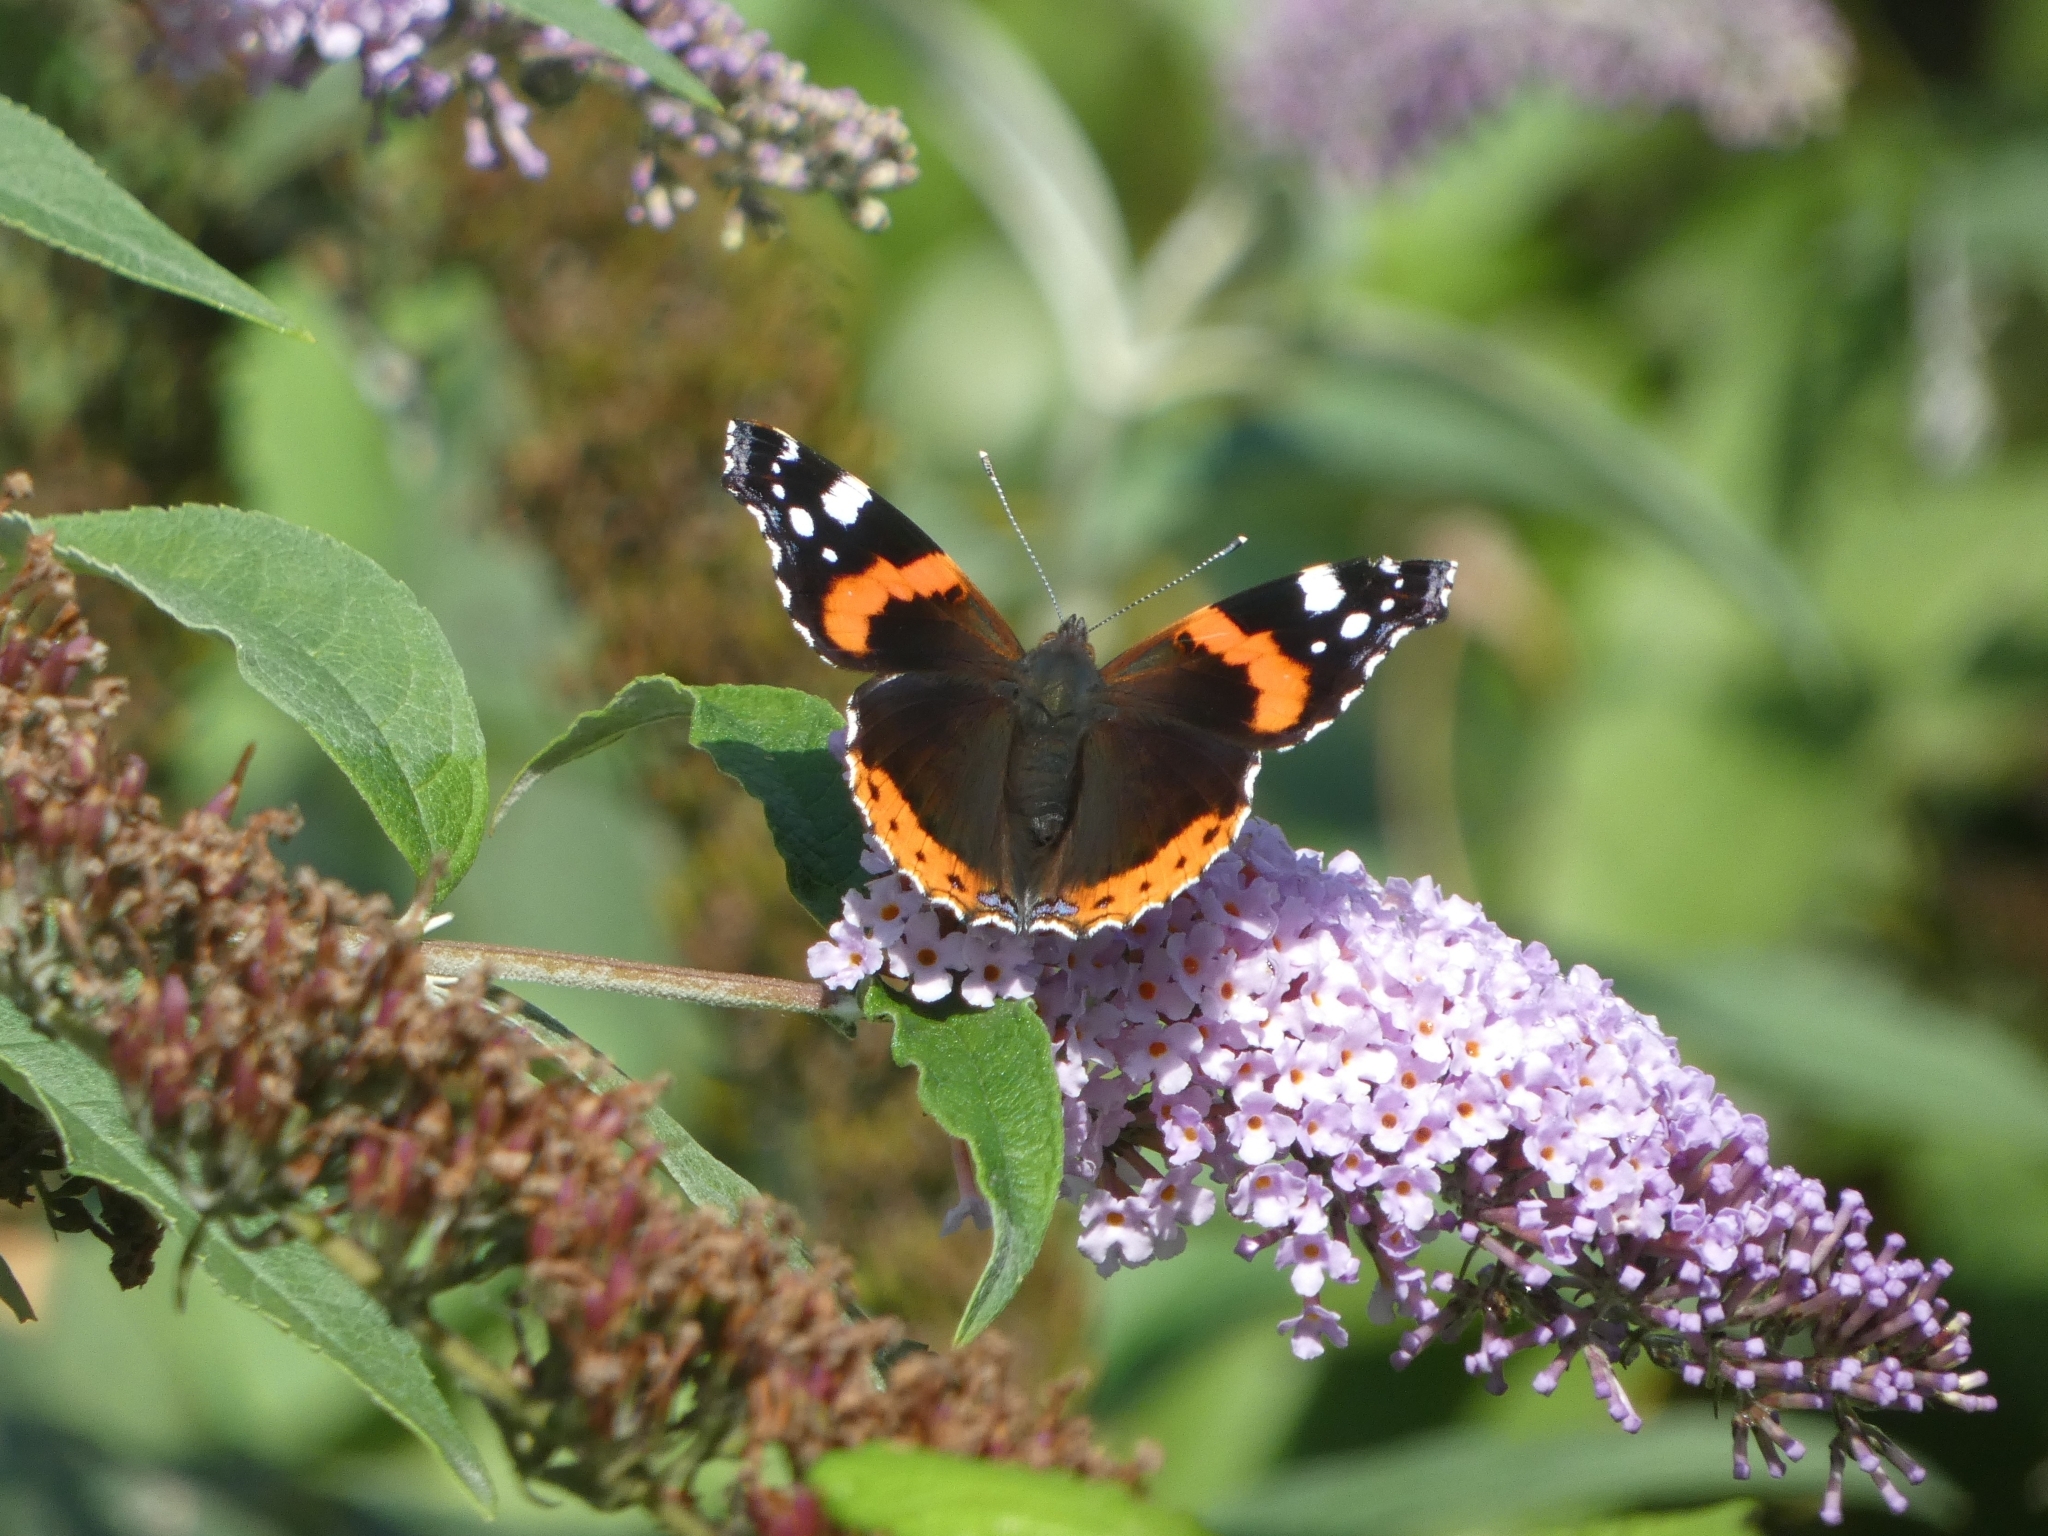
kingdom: Animalia
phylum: Arthropoda
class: Insecta
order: Lepidoptera
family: Nymphalidae
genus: Vanessa
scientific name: Vanessa atalanta
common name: Red admiral
